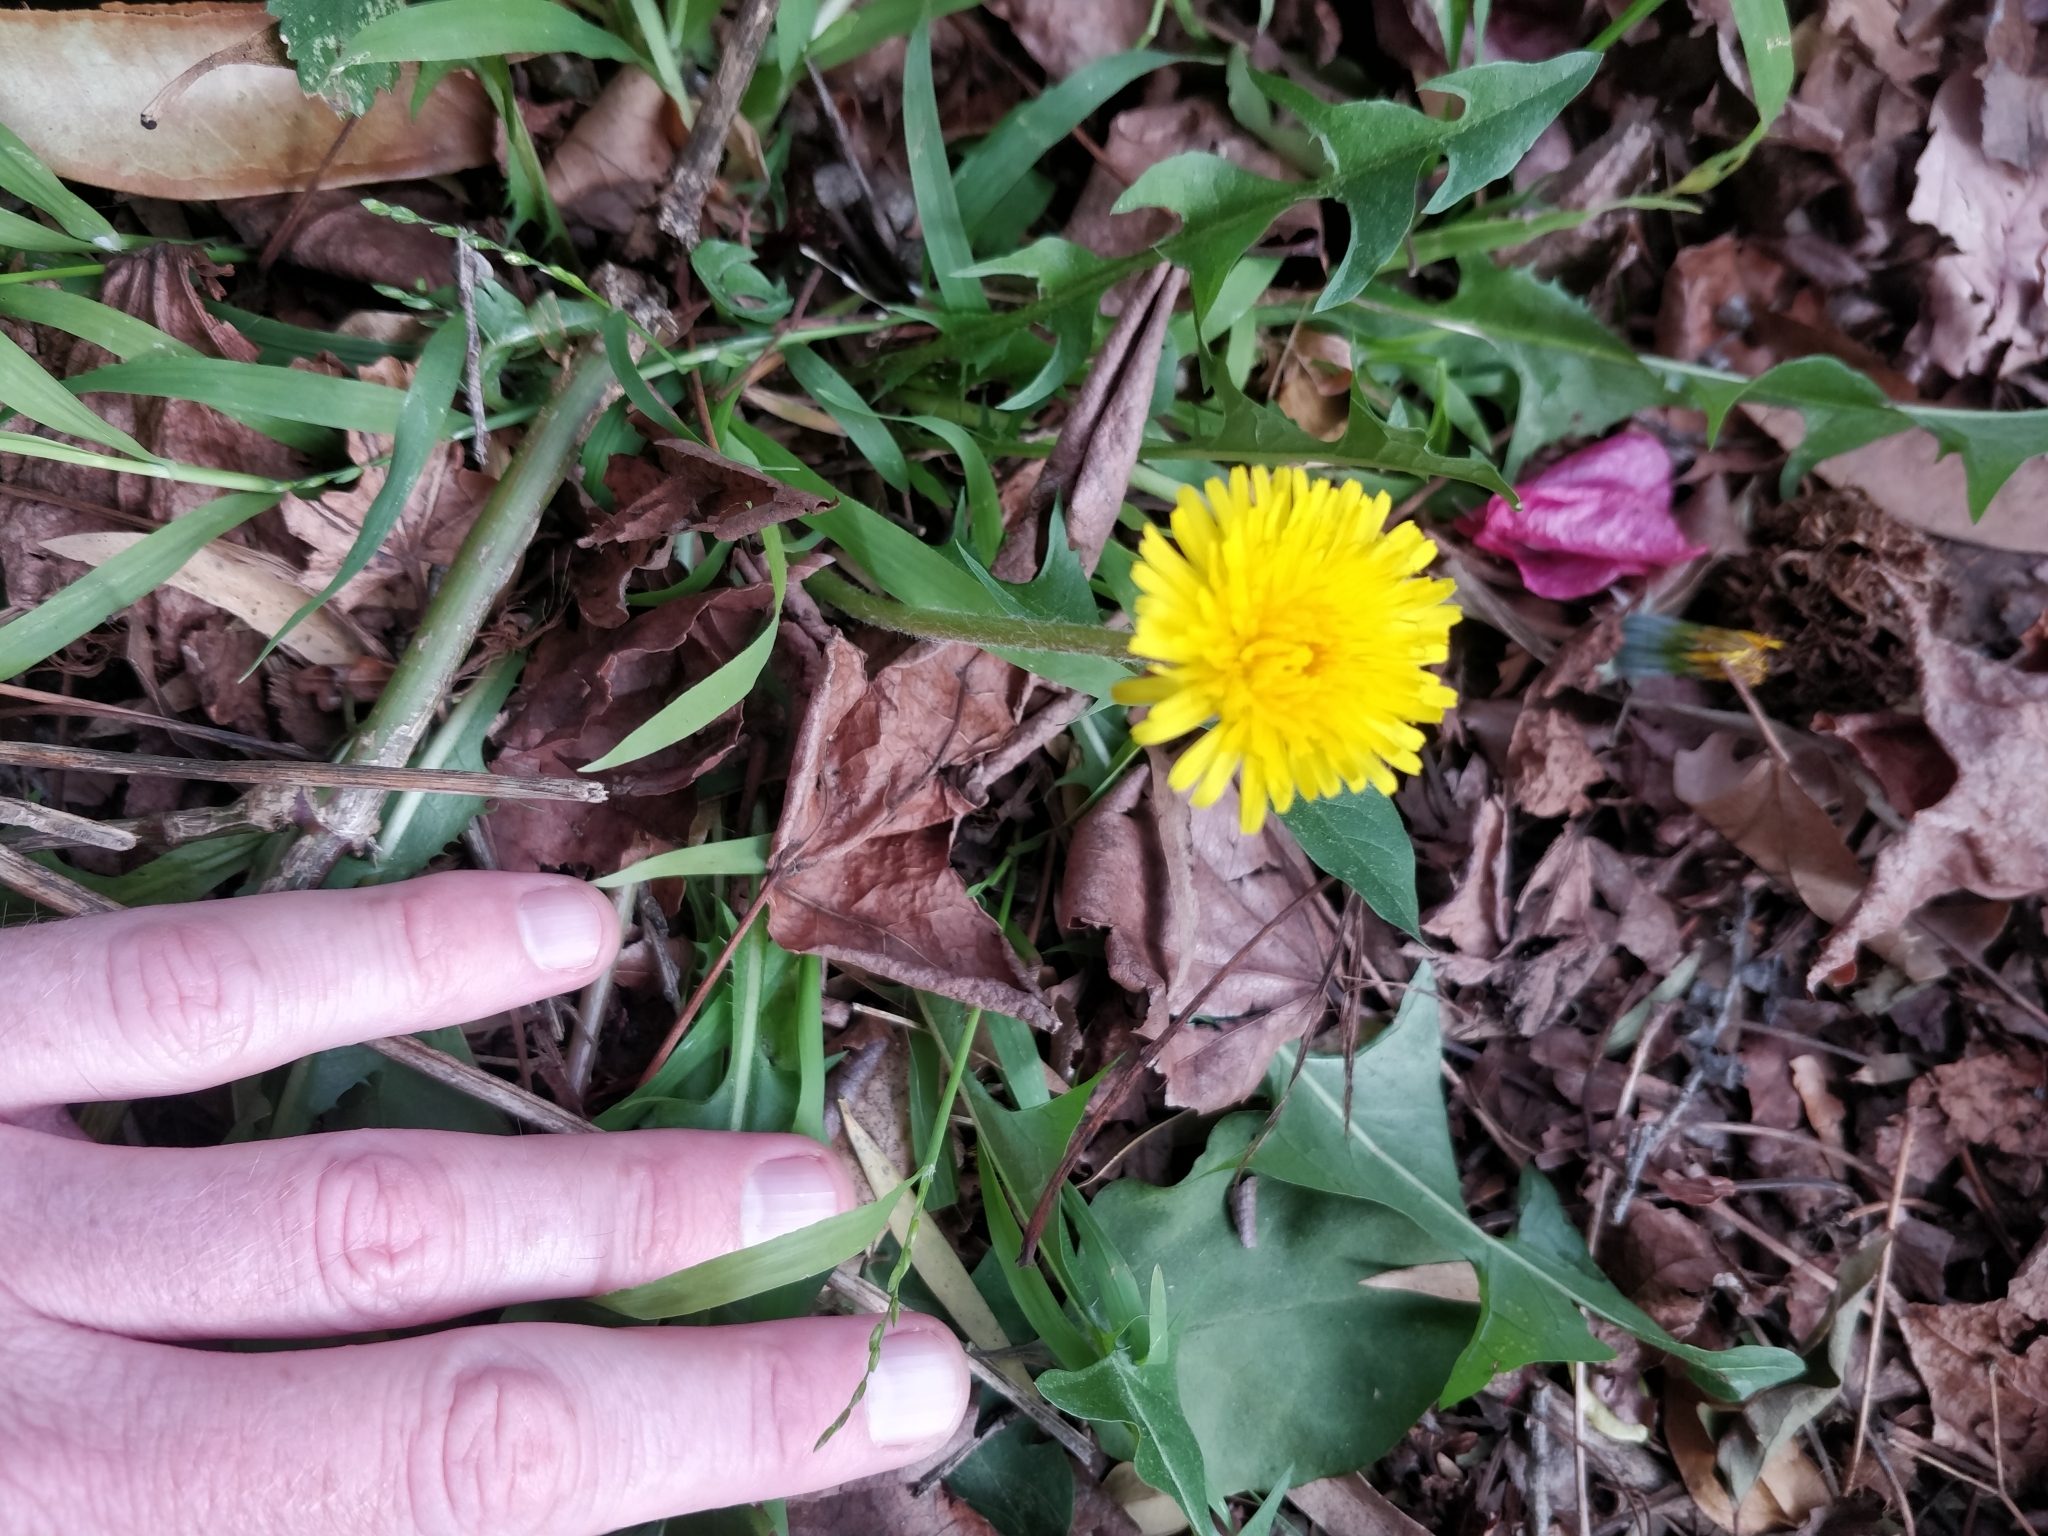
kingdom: Plantae
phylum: Tracheophyta
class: Magnoliopsida
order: Asterales
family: Asteraceae
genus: Taraxacum
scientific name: Taraxacum officinale
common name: Common dandelion
